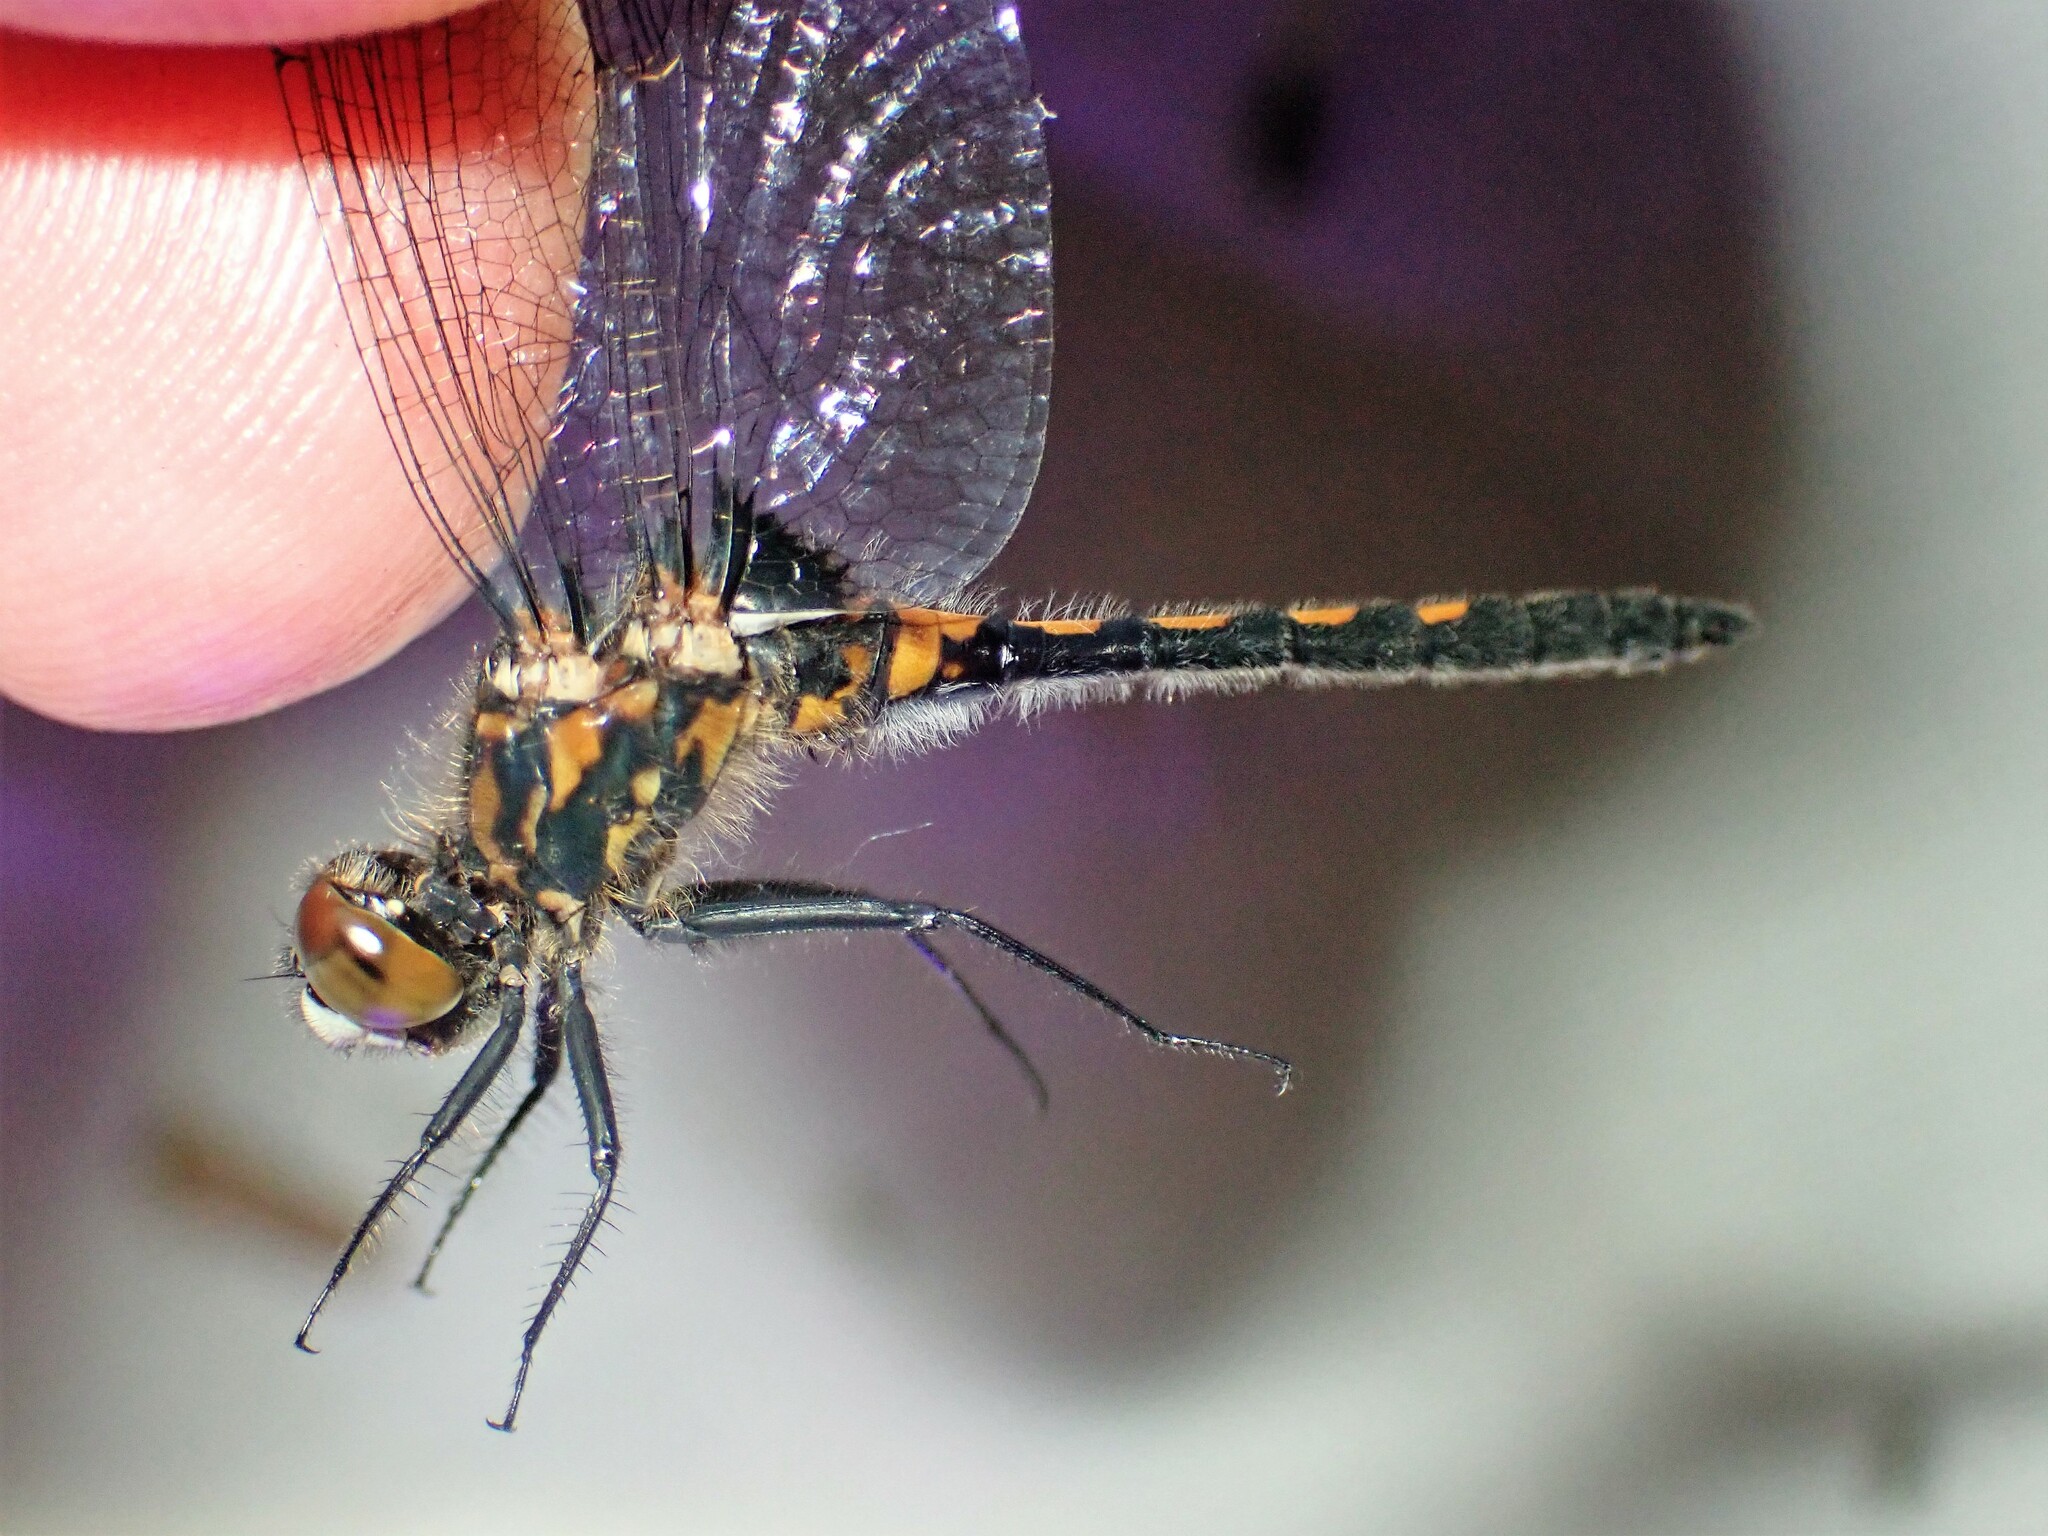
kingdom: Animalia
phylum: Arthropoda
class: Insecta
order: Odonata
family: Libellulidae
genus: Leucorrhinia
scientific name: Leucorrhinia hudsonica
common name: Hudsonian whiteface
